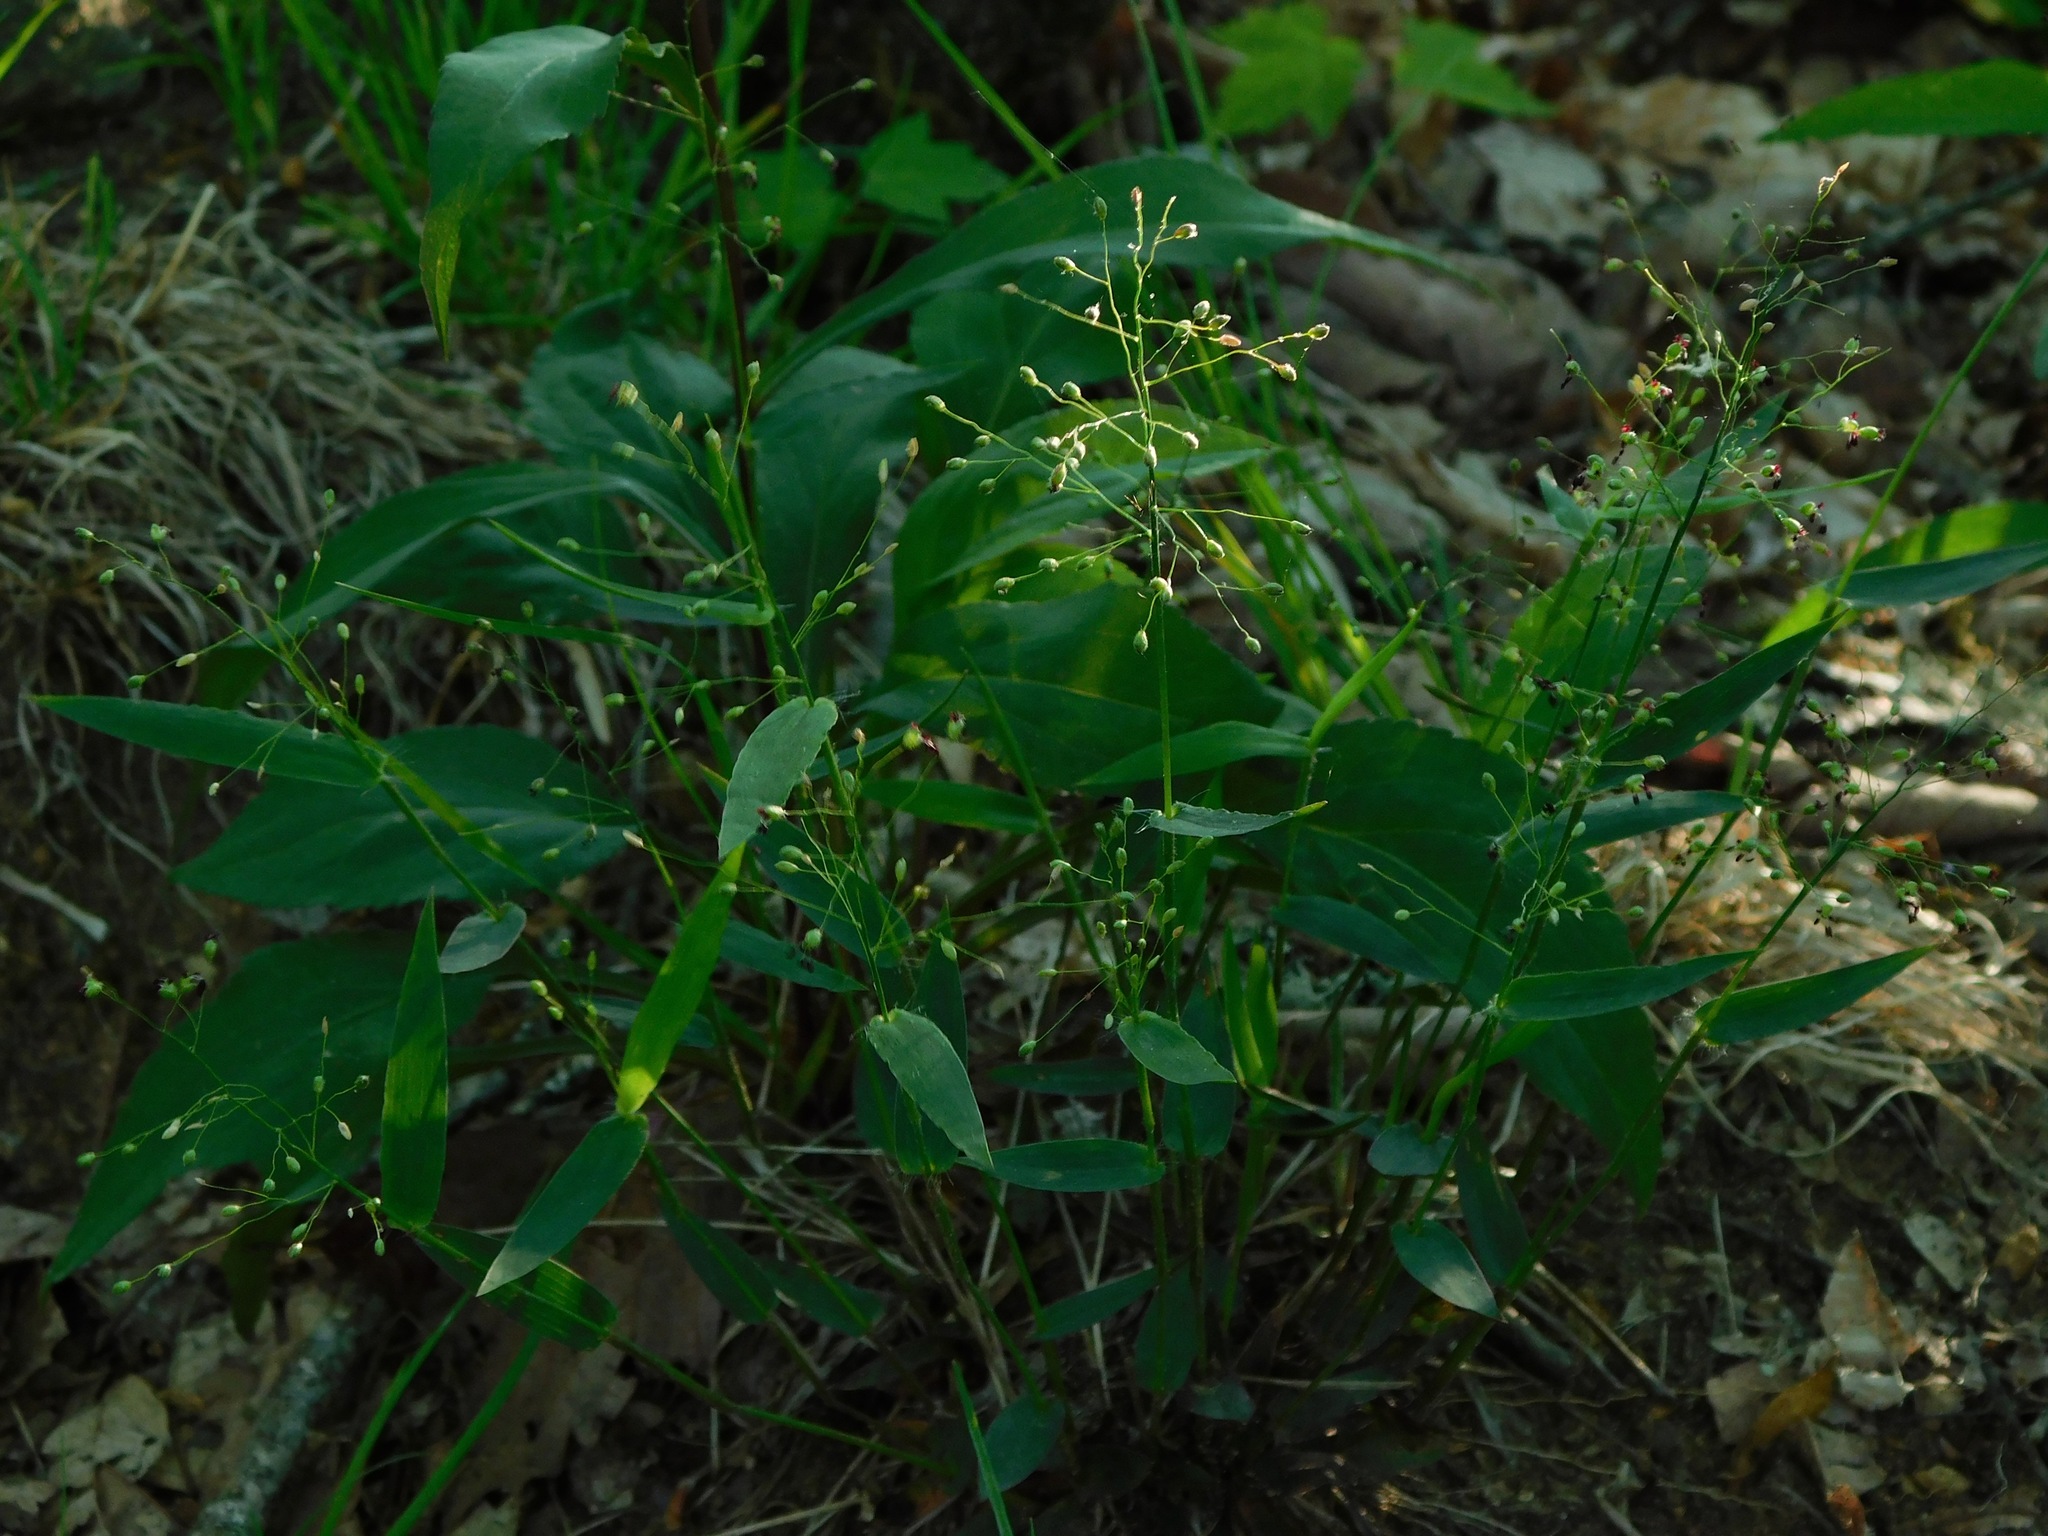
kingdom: Plantae
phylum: Tracheophyta
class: Liliopsida
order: Poales
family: Poaceae
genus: Dichanthelium
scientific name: Dichanthelium oligosanthes
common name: Few-anther obscuregrass
